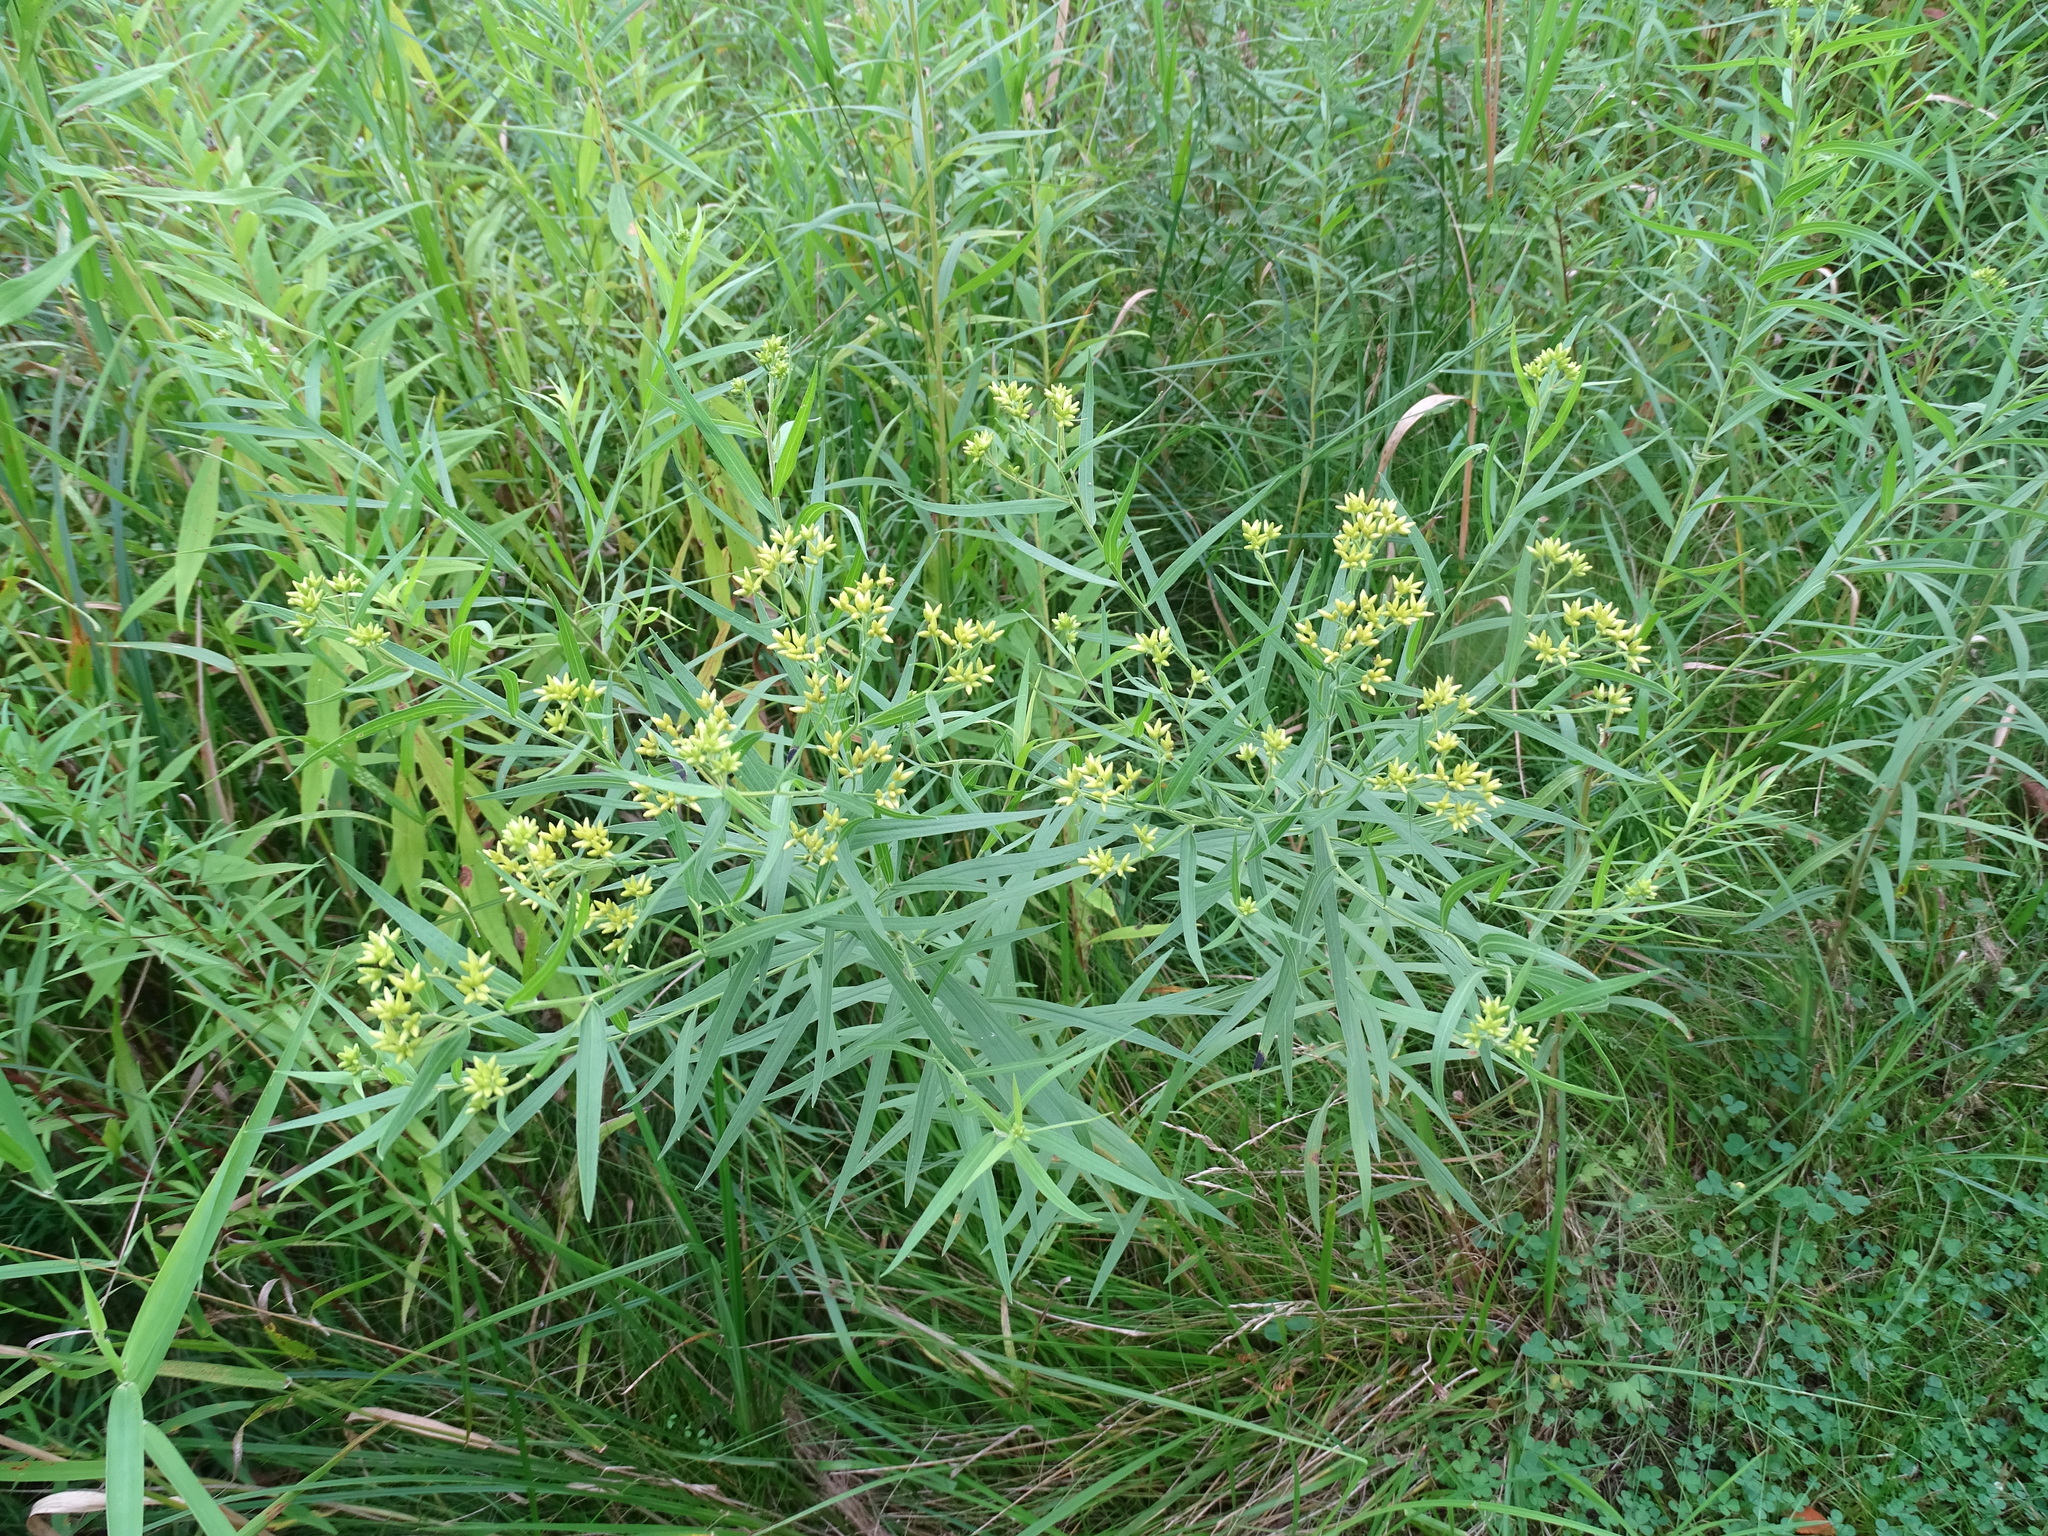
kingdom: Plantae
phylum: Tracheophyta
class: Magnoliopsida
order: Asterales
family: Asteraceae
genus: Euthamia
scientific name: Euthamia graminifolia
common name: Common goldentop
